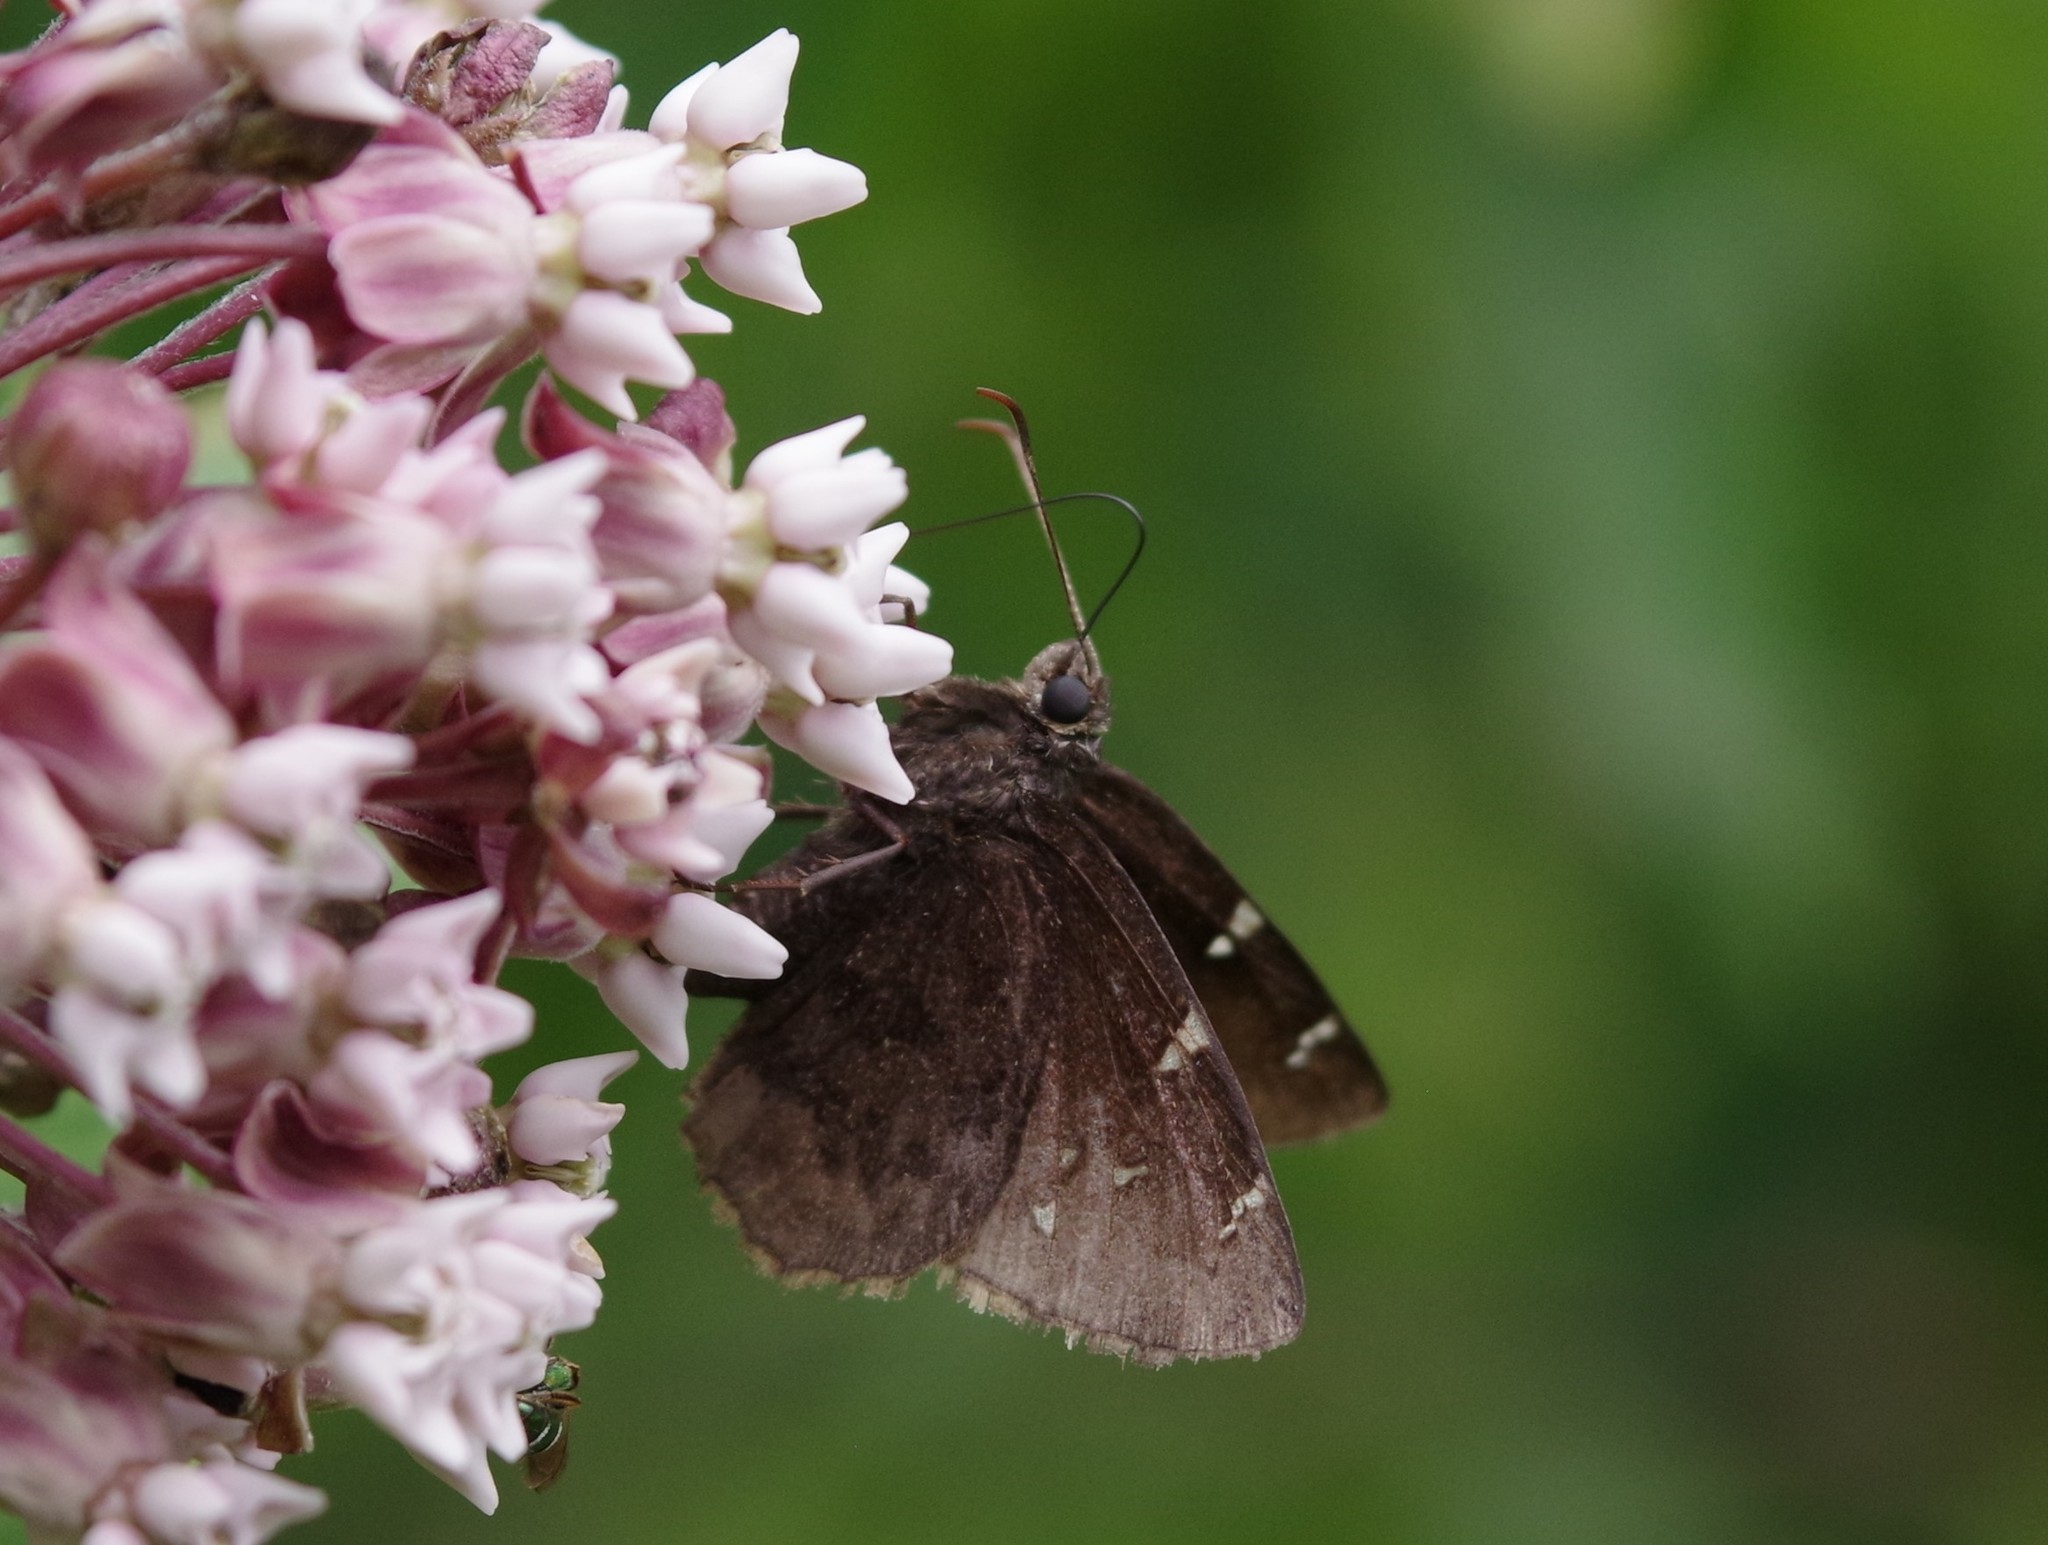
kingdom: Animalia
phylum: Arthropoda
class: Insecta
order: Lepidoptera
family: Hesperiidae
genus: Thorybes
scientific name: Thorybes pylades
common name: Northern cloudywing
